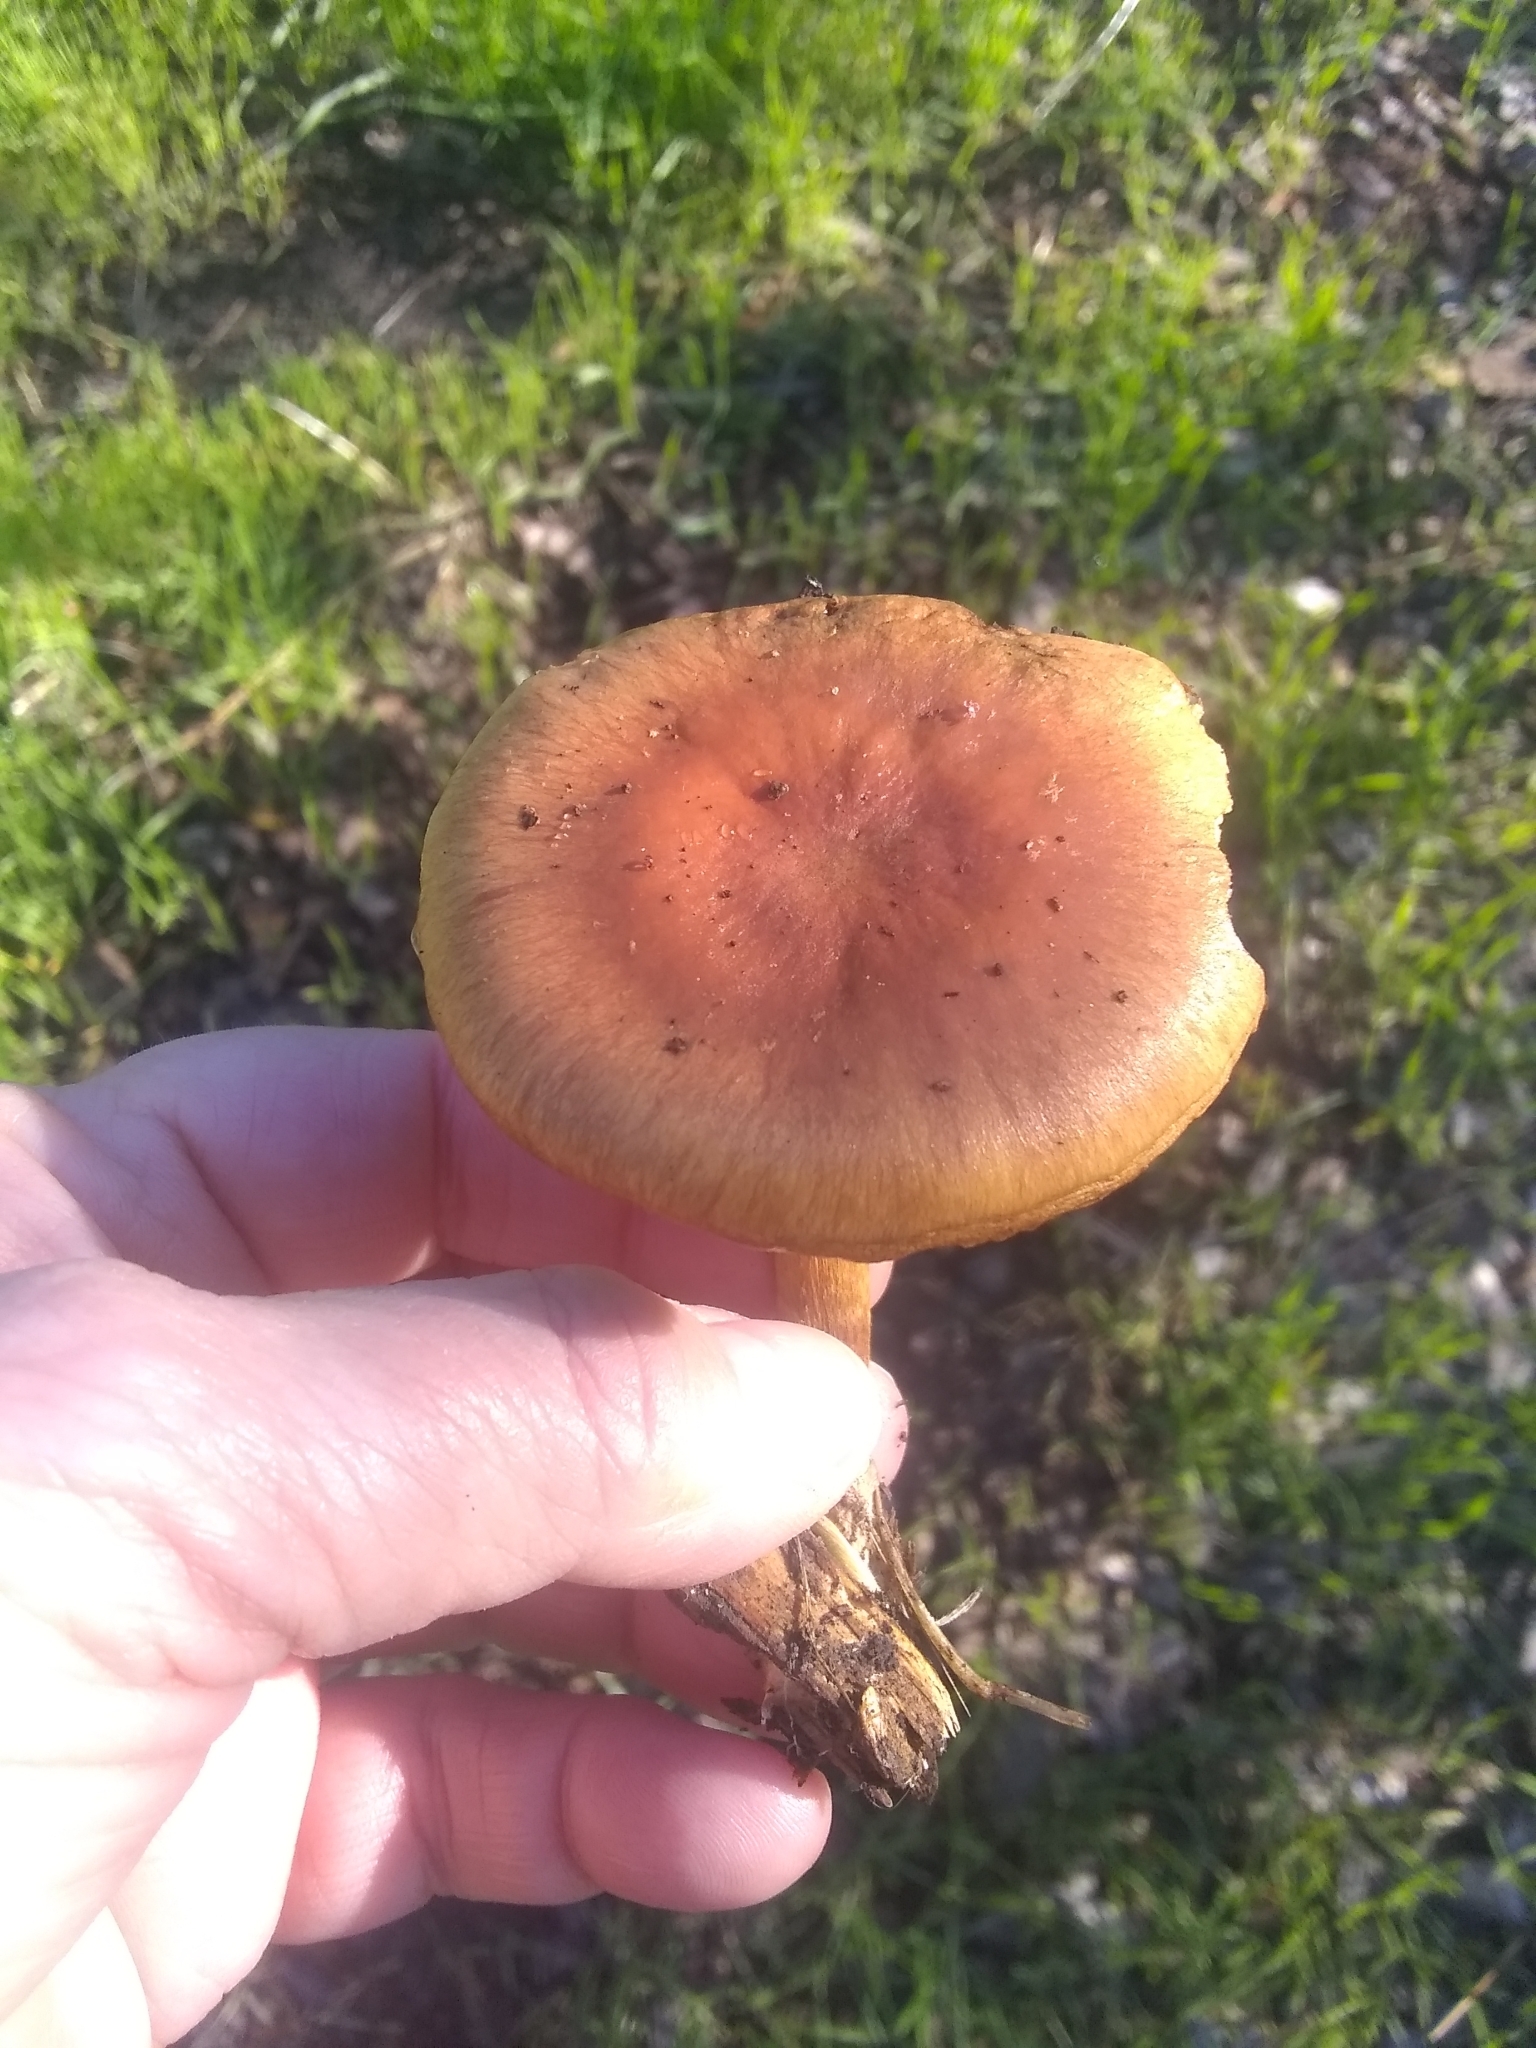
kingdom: Fungi
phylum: Basidiomycota
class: Agaricomycetes
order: Agaricales
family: Strophariaceae
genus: Pholiota
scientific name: Pholiota velaglutinosa
